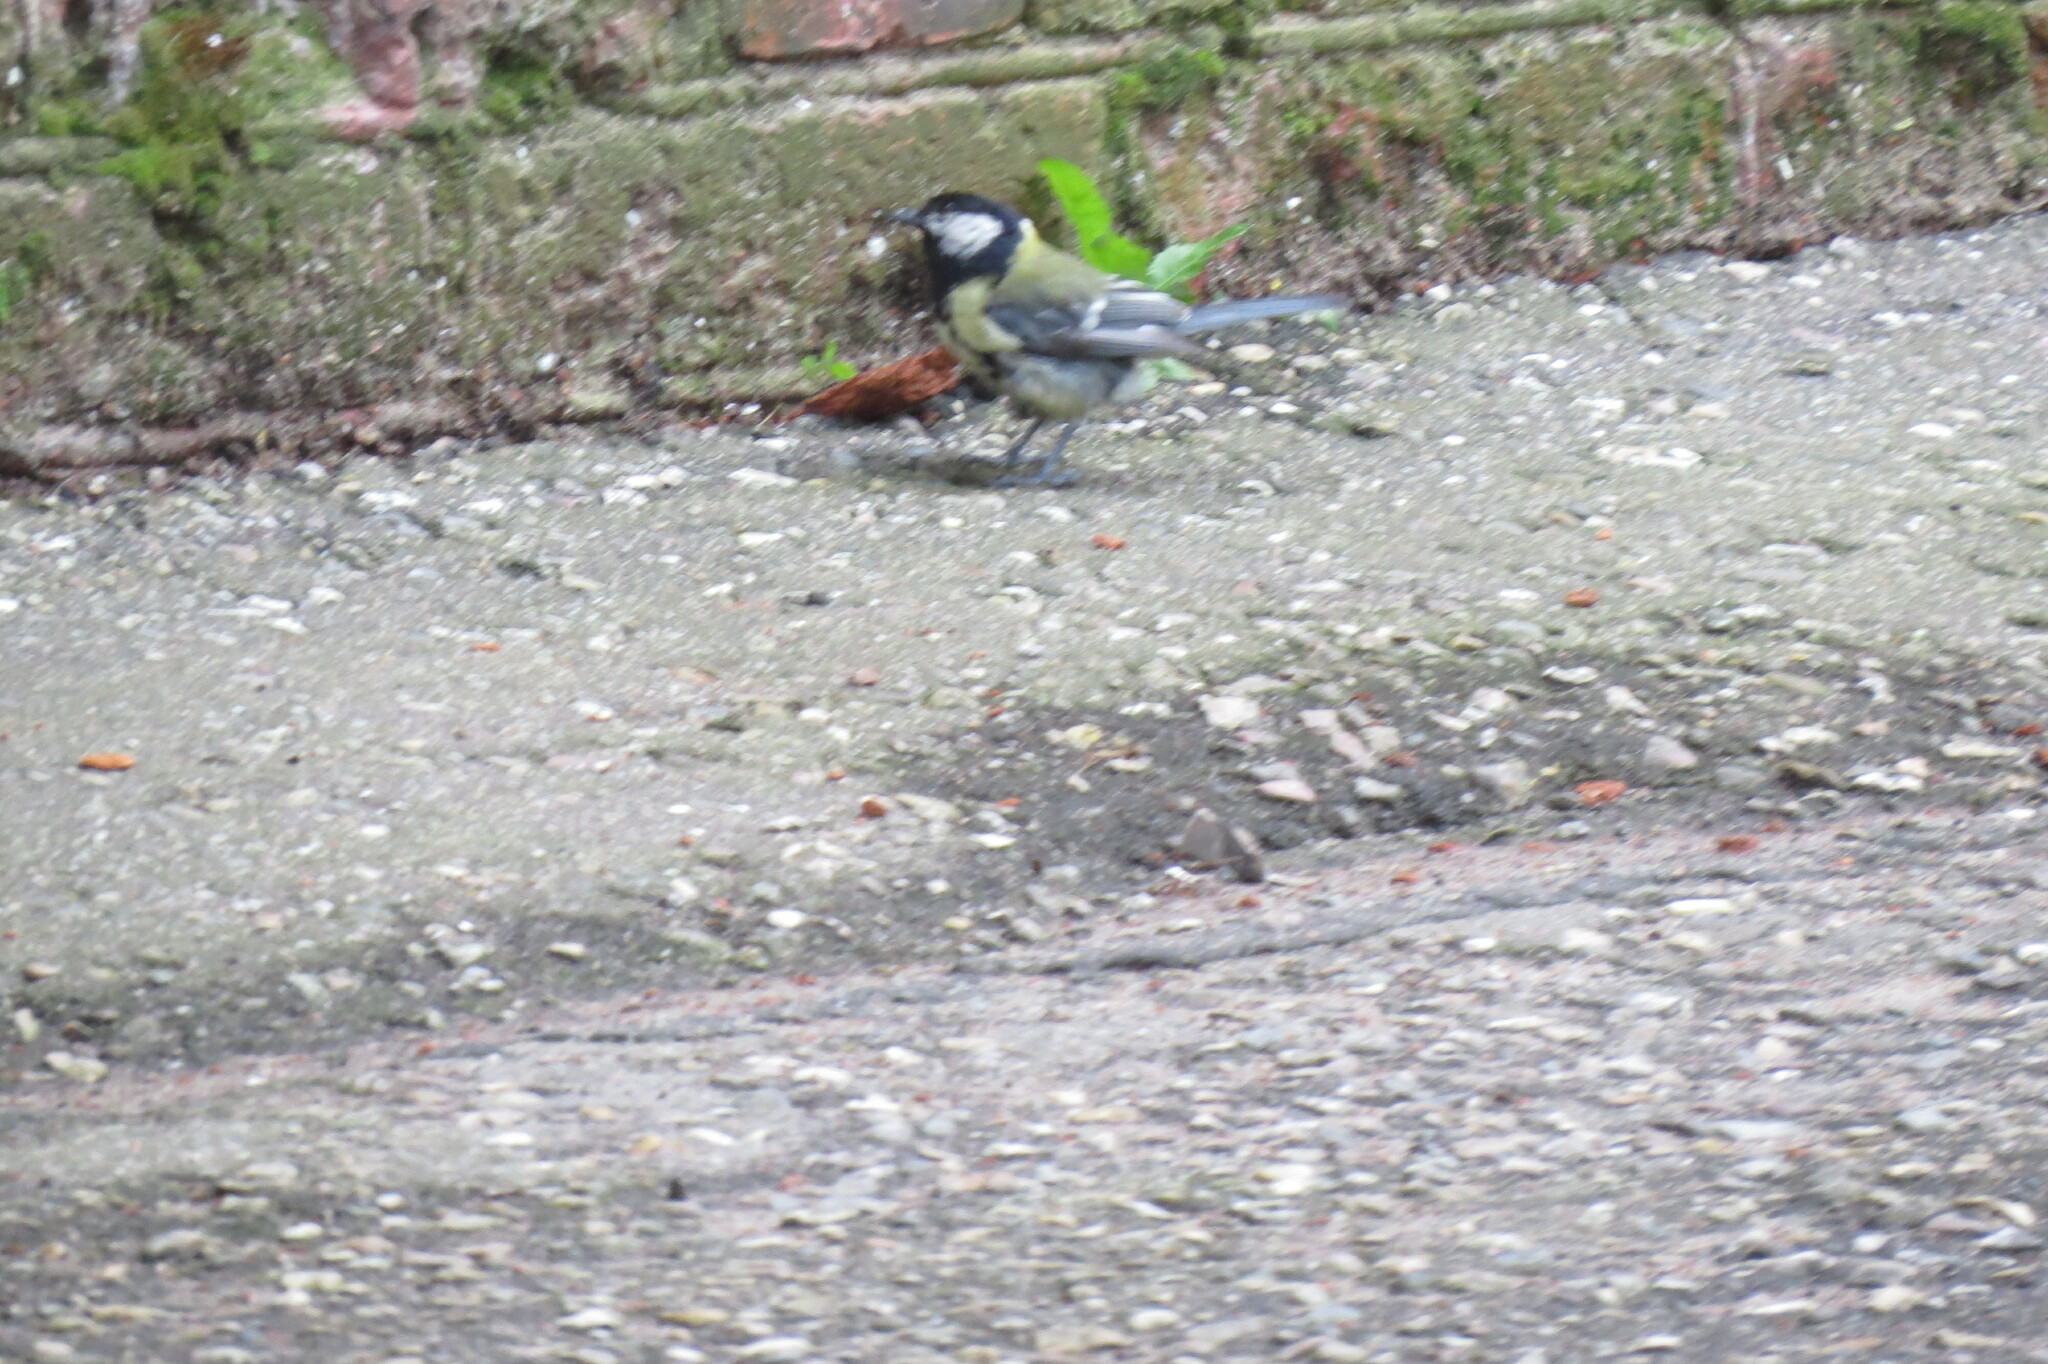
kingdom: Animalia
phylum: Chordata
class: Aves
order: Passeriformes
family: Paridae
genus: Parus
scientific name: Parus major
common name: Great tit
